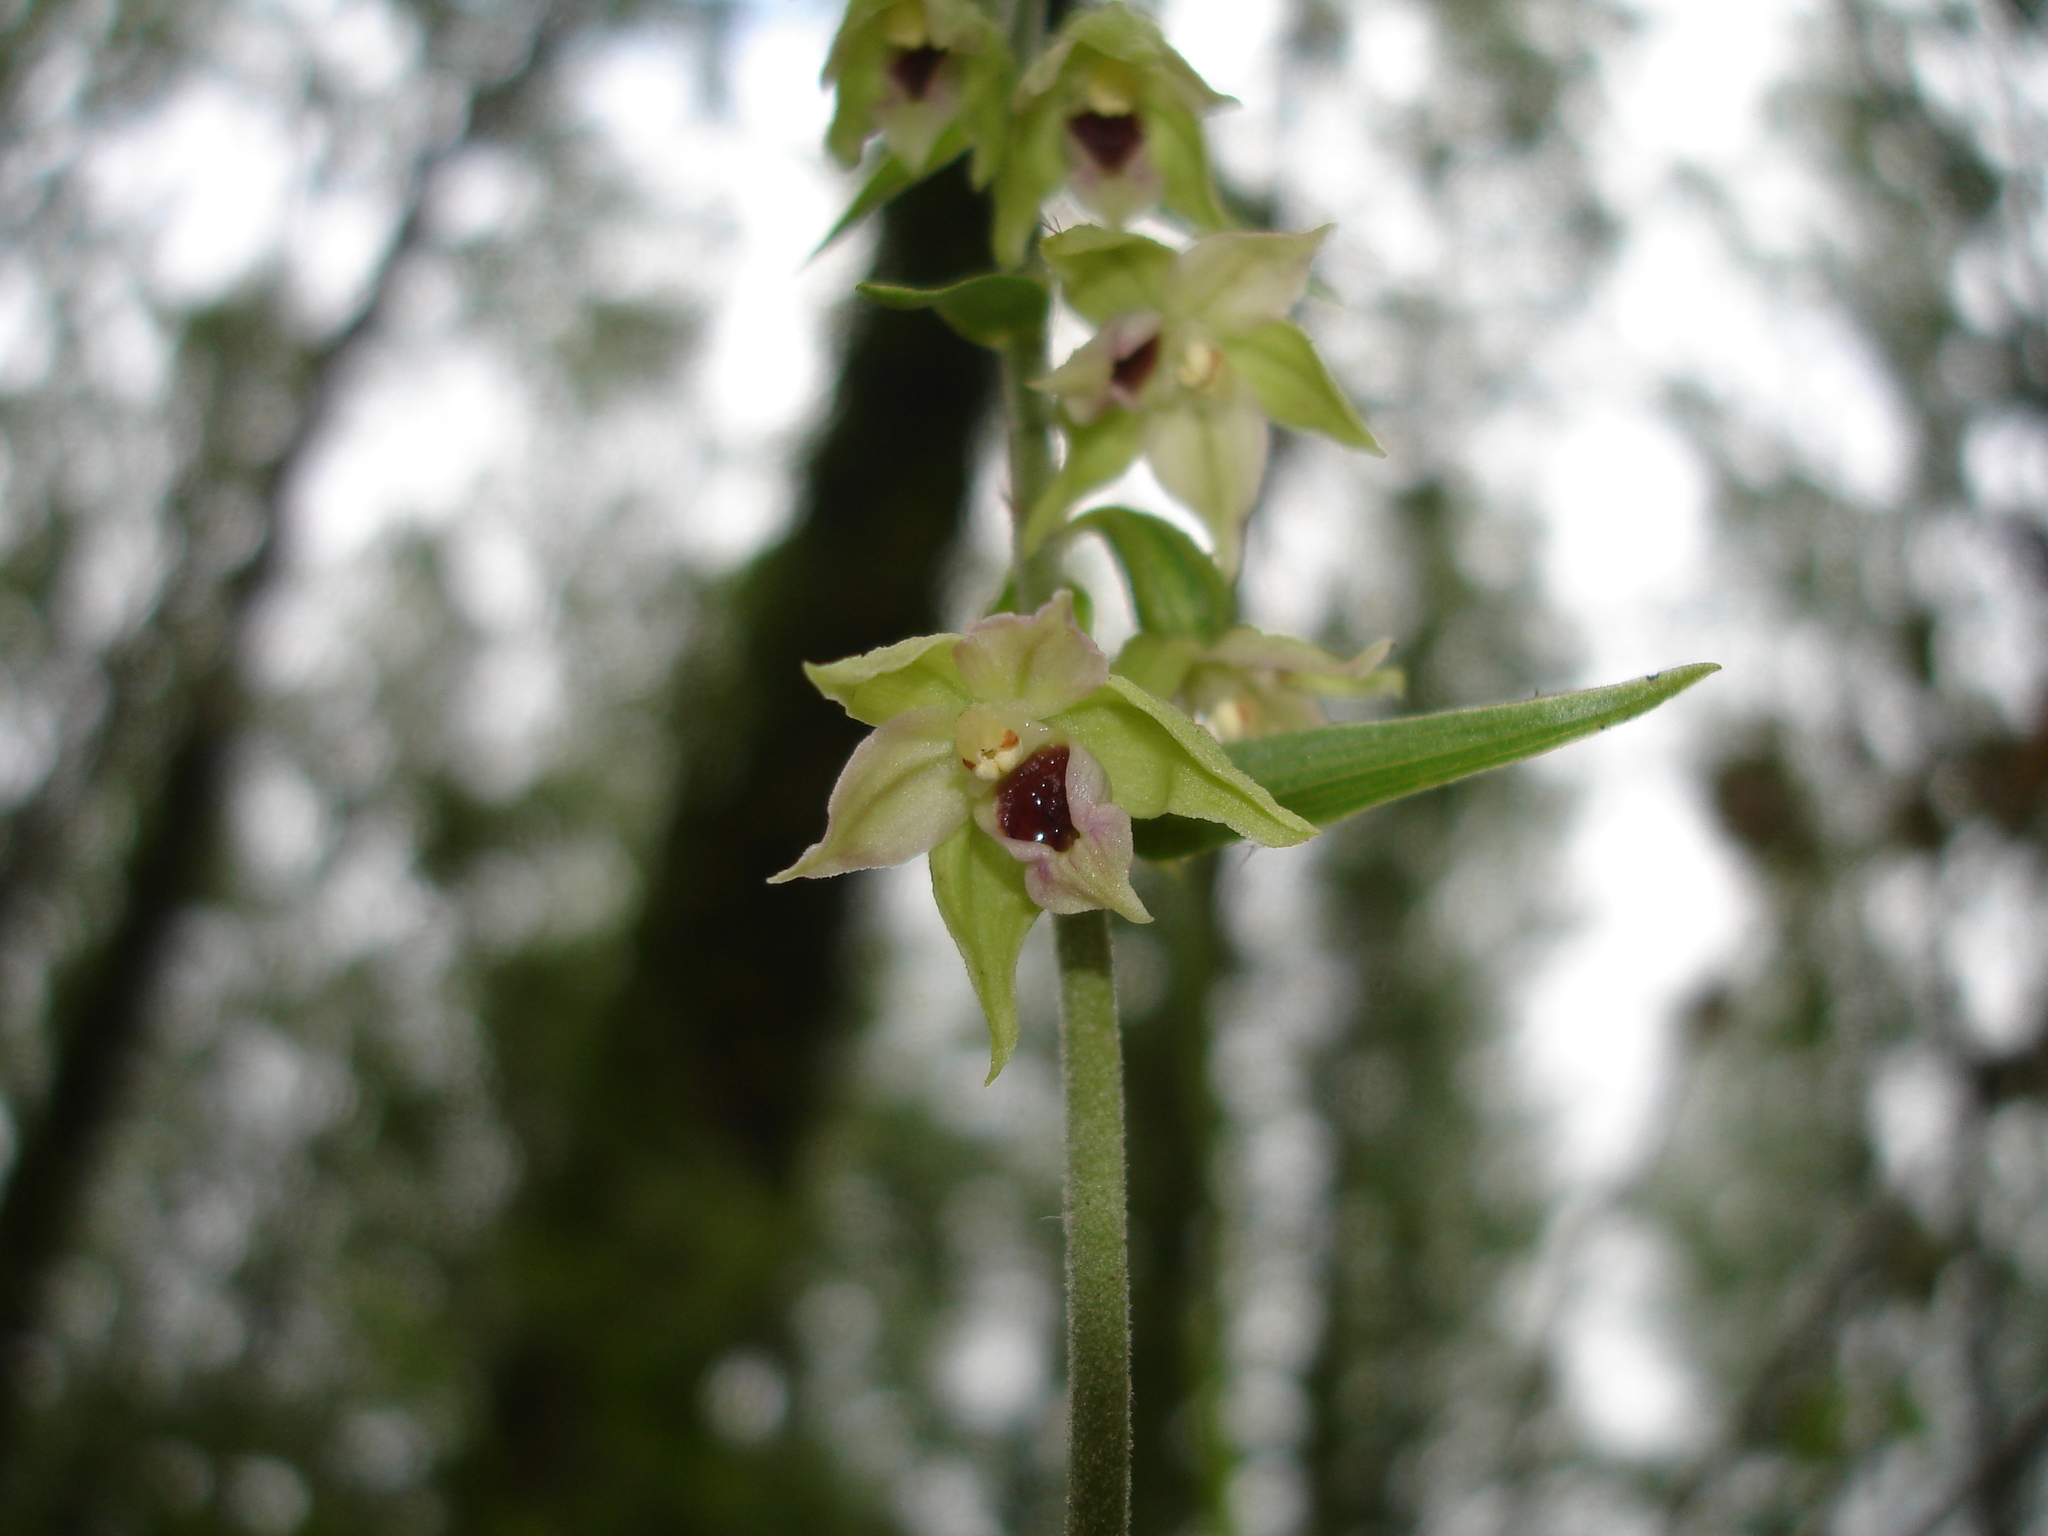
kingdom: Plantae
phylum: Tracheophyta
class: Liliopsida
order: Asparagales
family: Orchidaceae
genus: Epipactis
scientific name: Epipactis bugacensis
